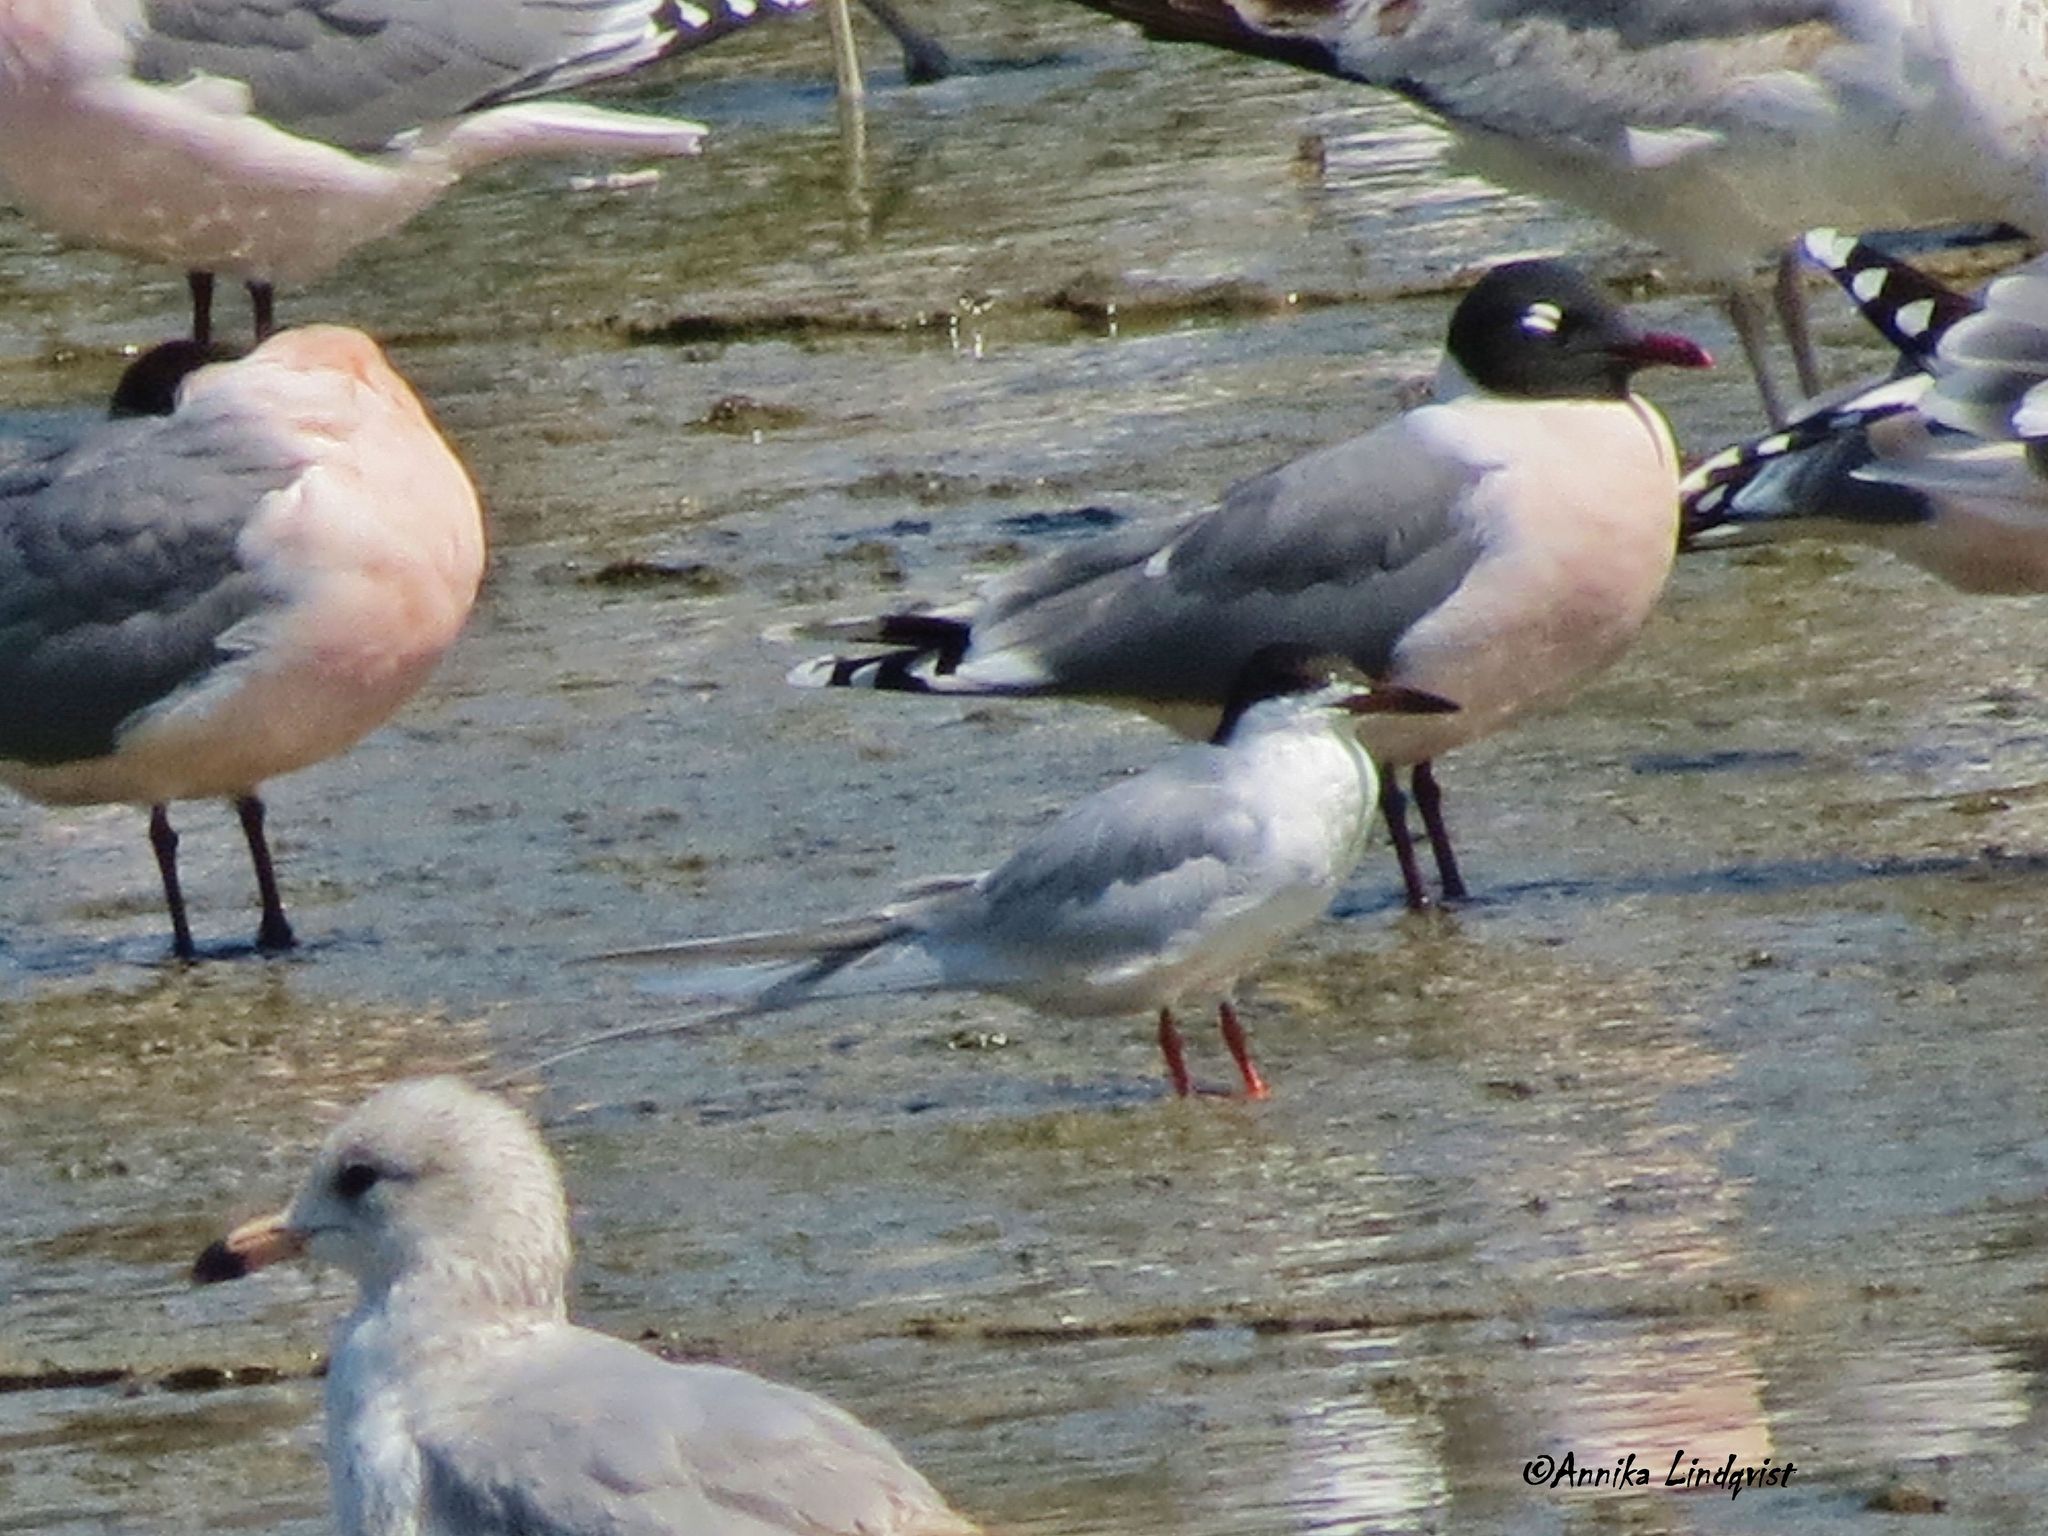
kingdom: Animalia
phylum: Chordata
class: Aves
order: Charadriiformes
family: Laridae
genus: Sterna
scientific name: Sterna forsteri
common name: Forster's tern
